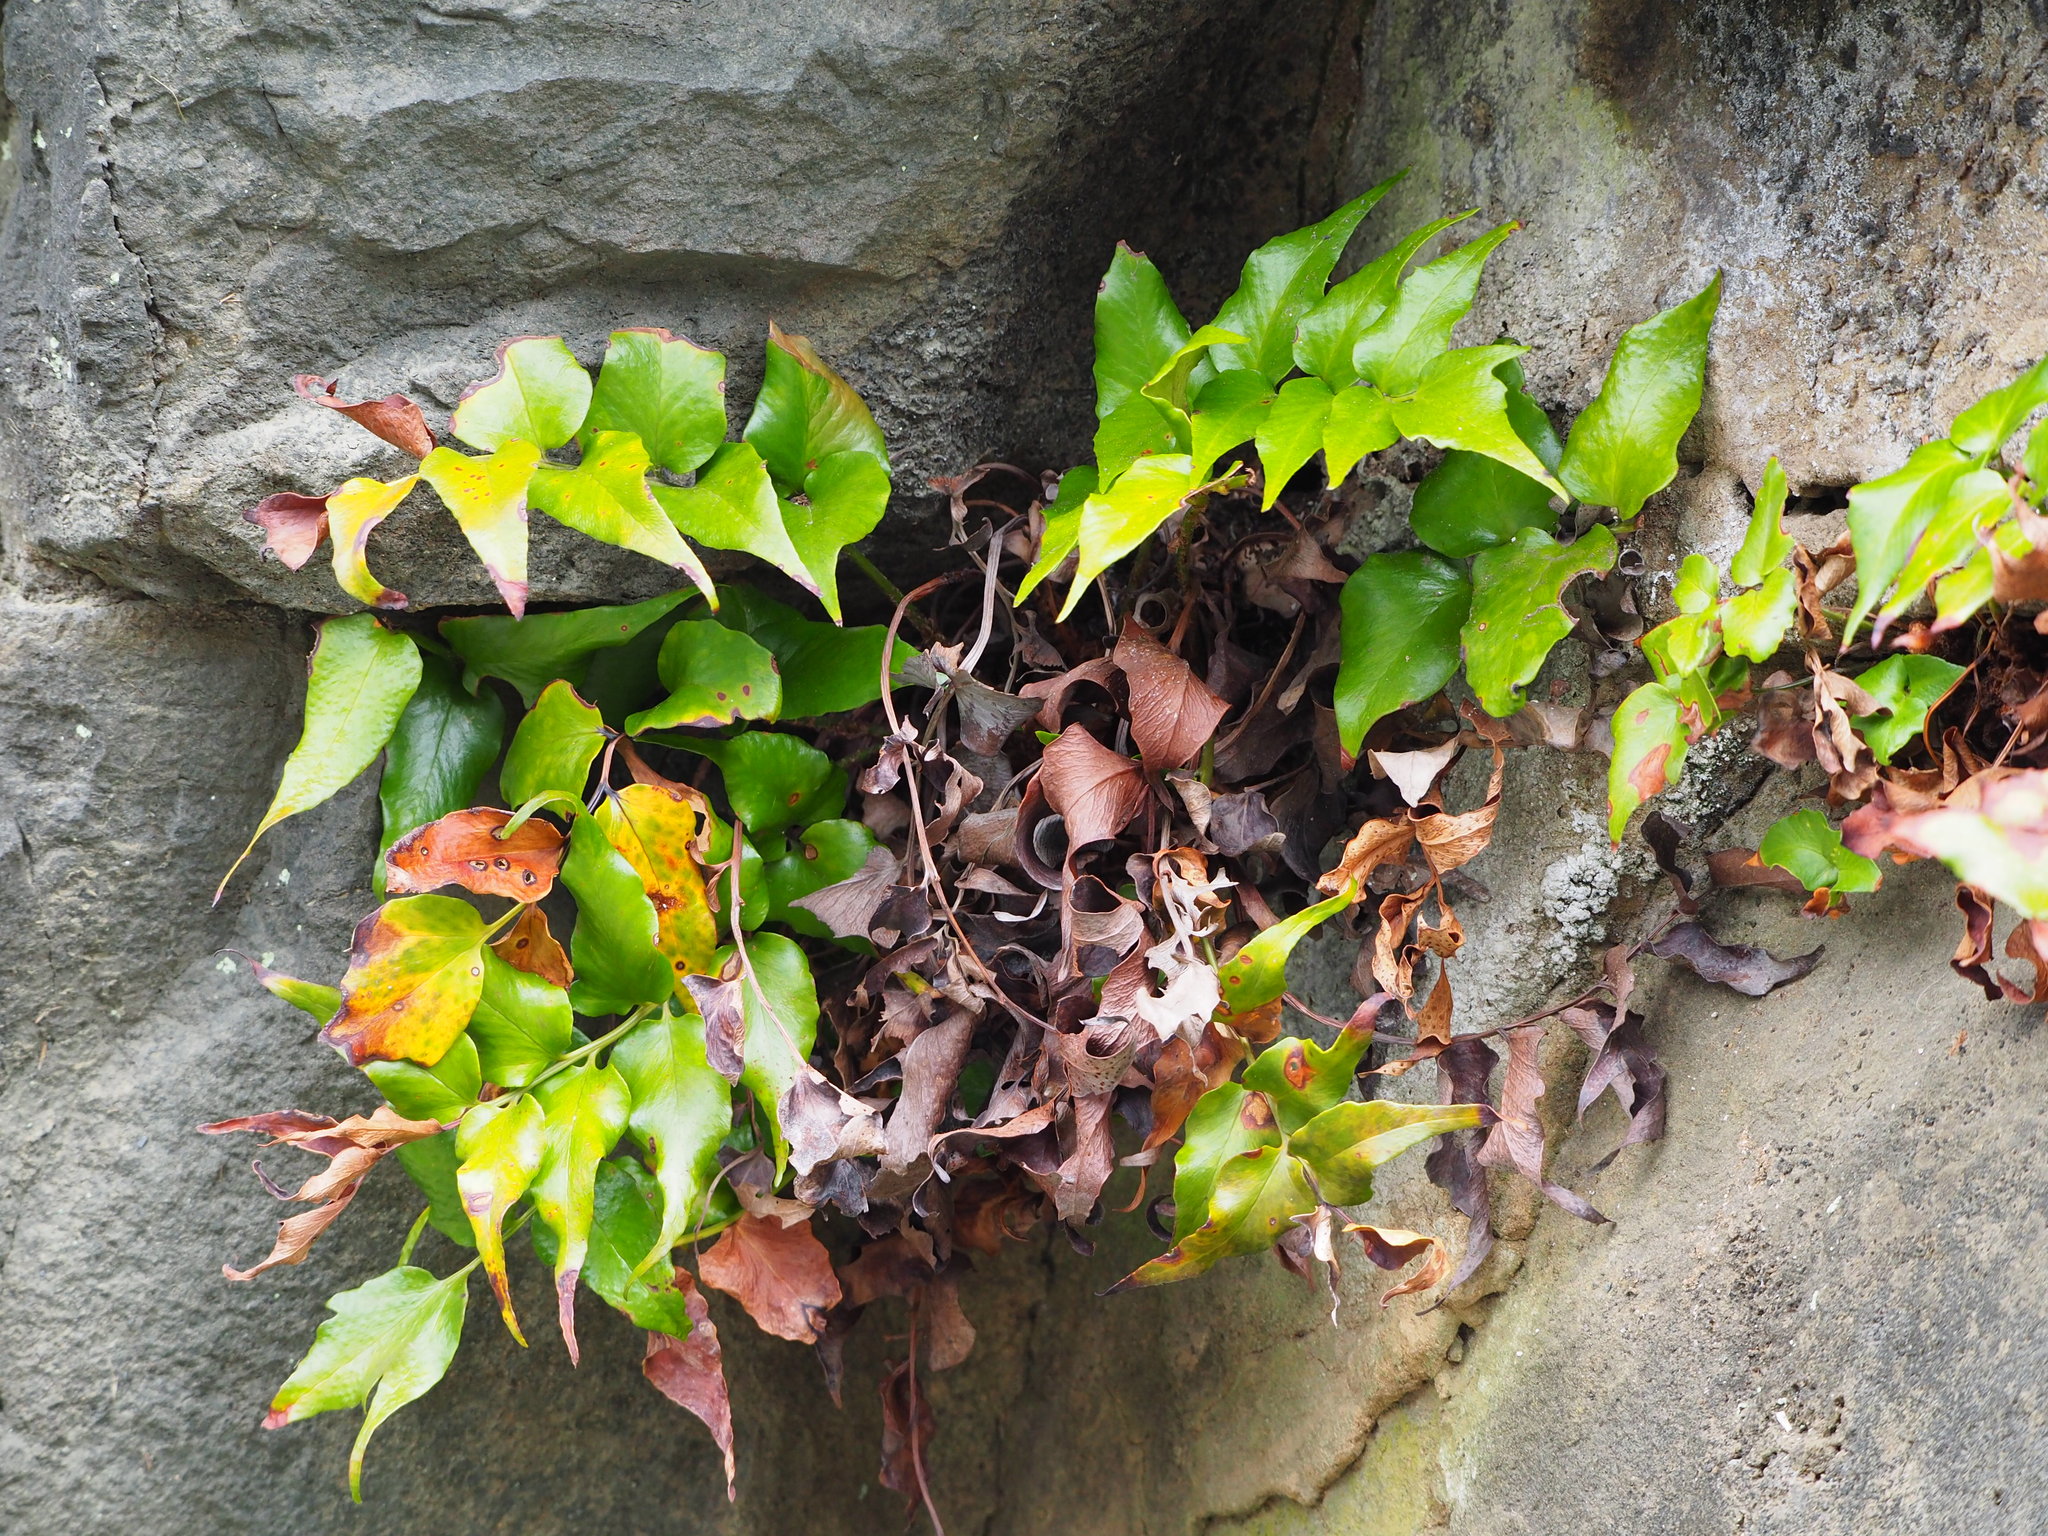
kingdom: Plantae
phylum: Tracheophyta
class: Polypodiopsida
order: Polypodiales
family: Dryopteridaceae
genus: Cyrtomium
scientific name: Cyrtomium falcatum
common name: House holly-fern
